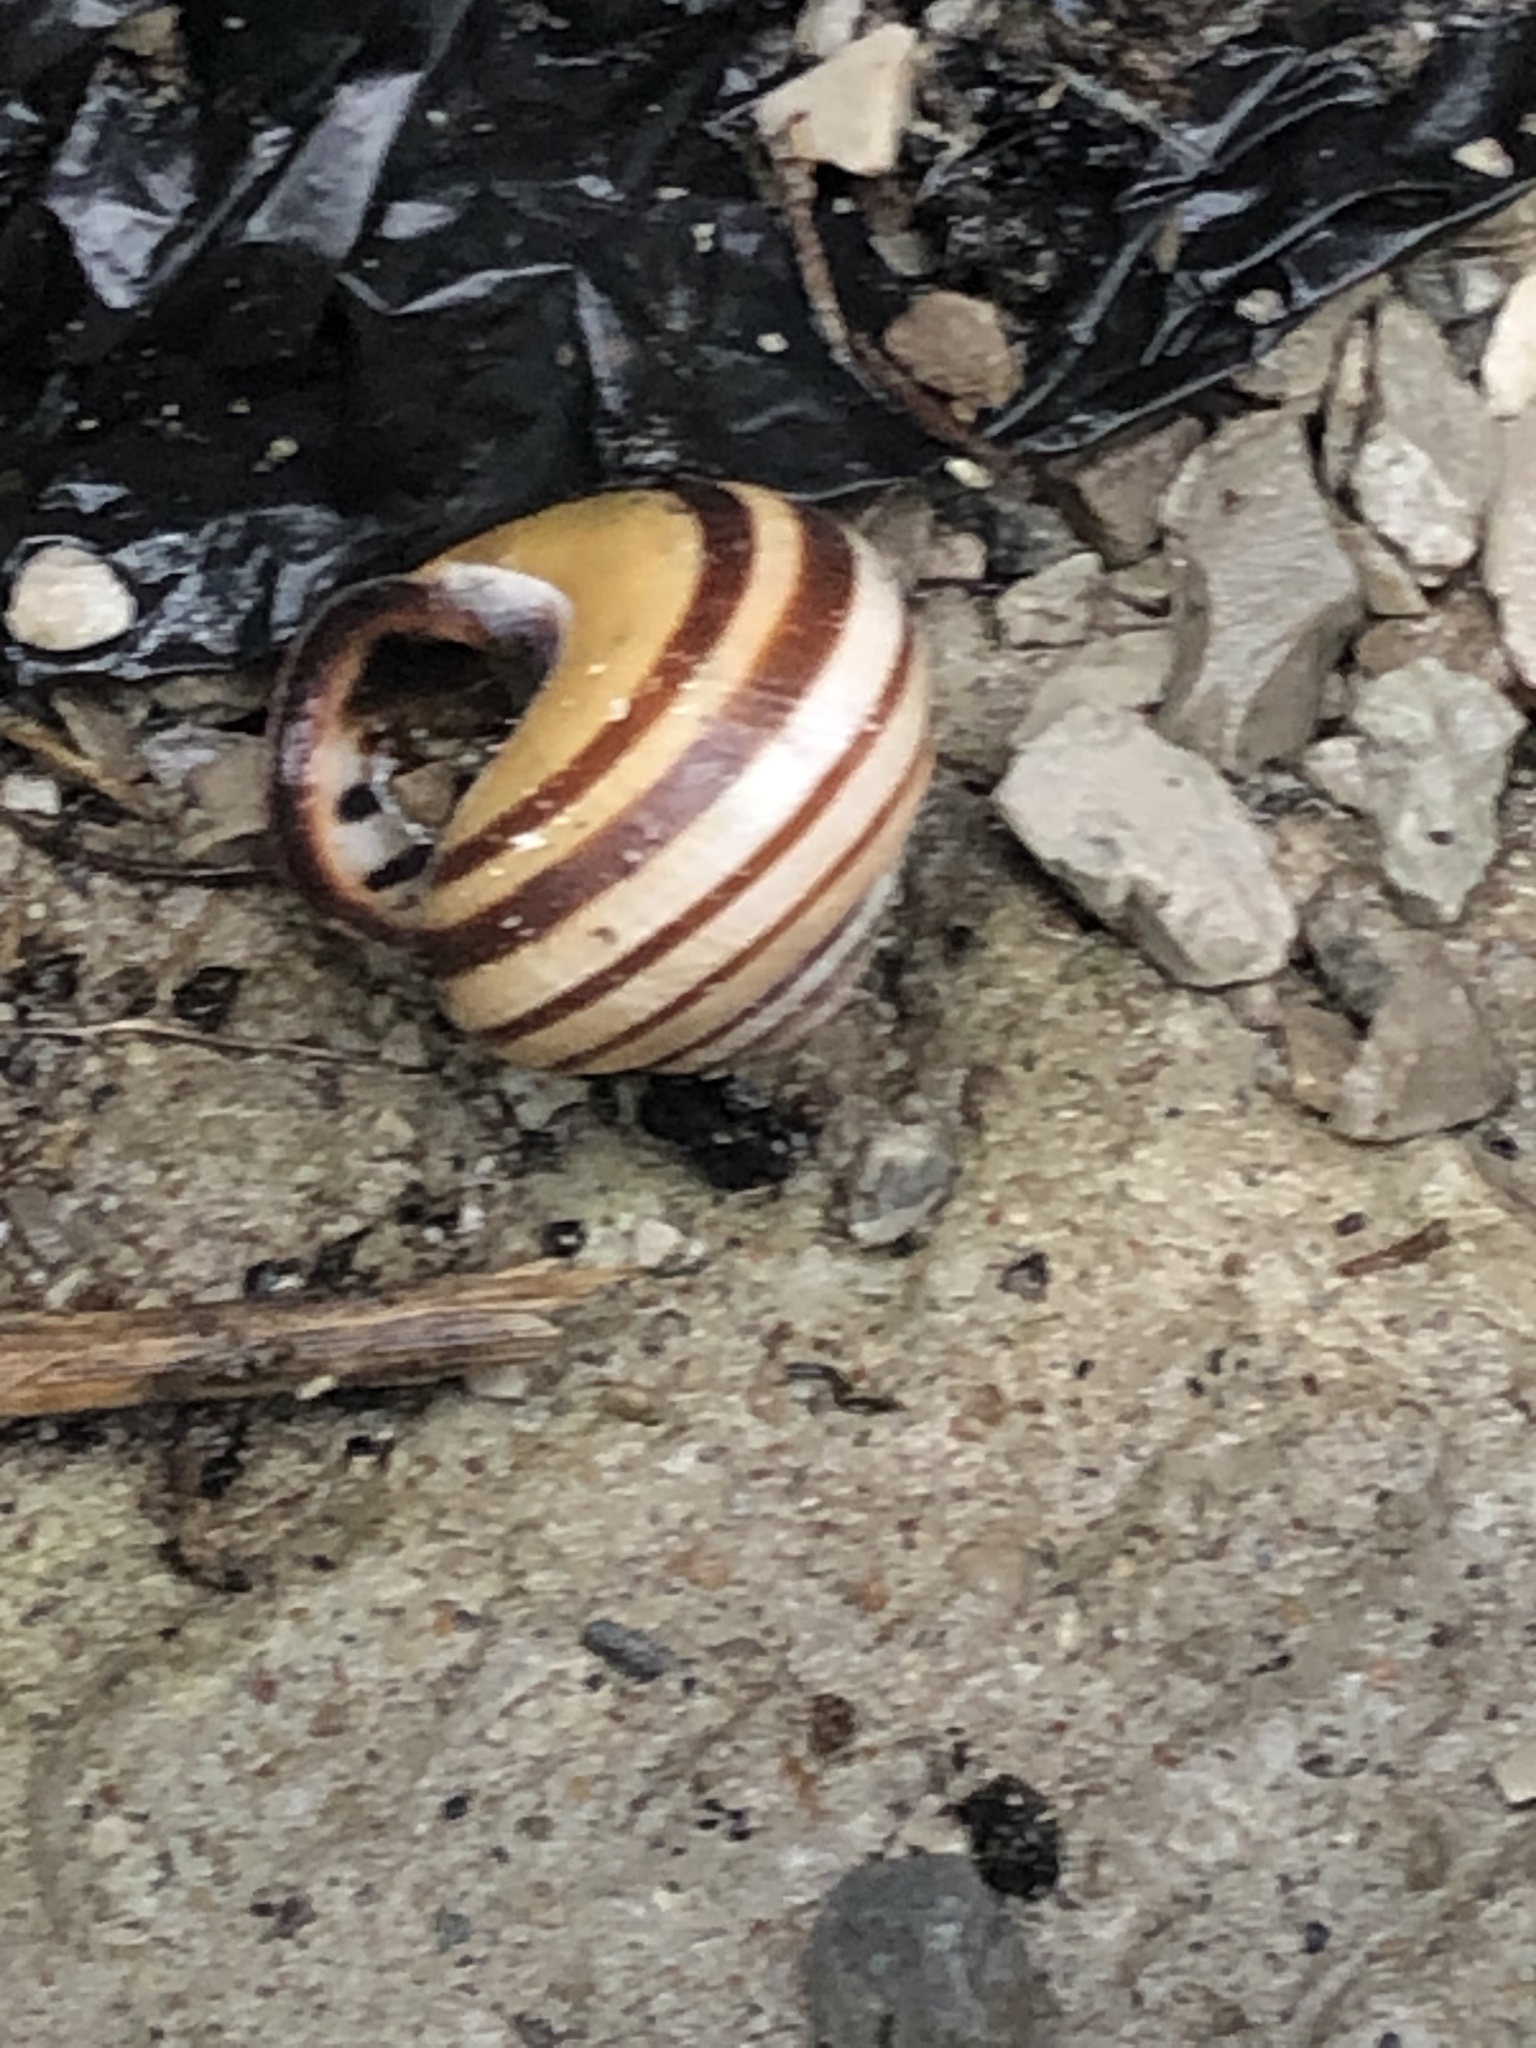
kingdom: Animalia
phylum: Mollusca
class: Gastropoda
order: Stylommatophora
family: Helicidae
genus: Cepaea
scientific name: Cepaea nemoralis
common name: Grovesnail
